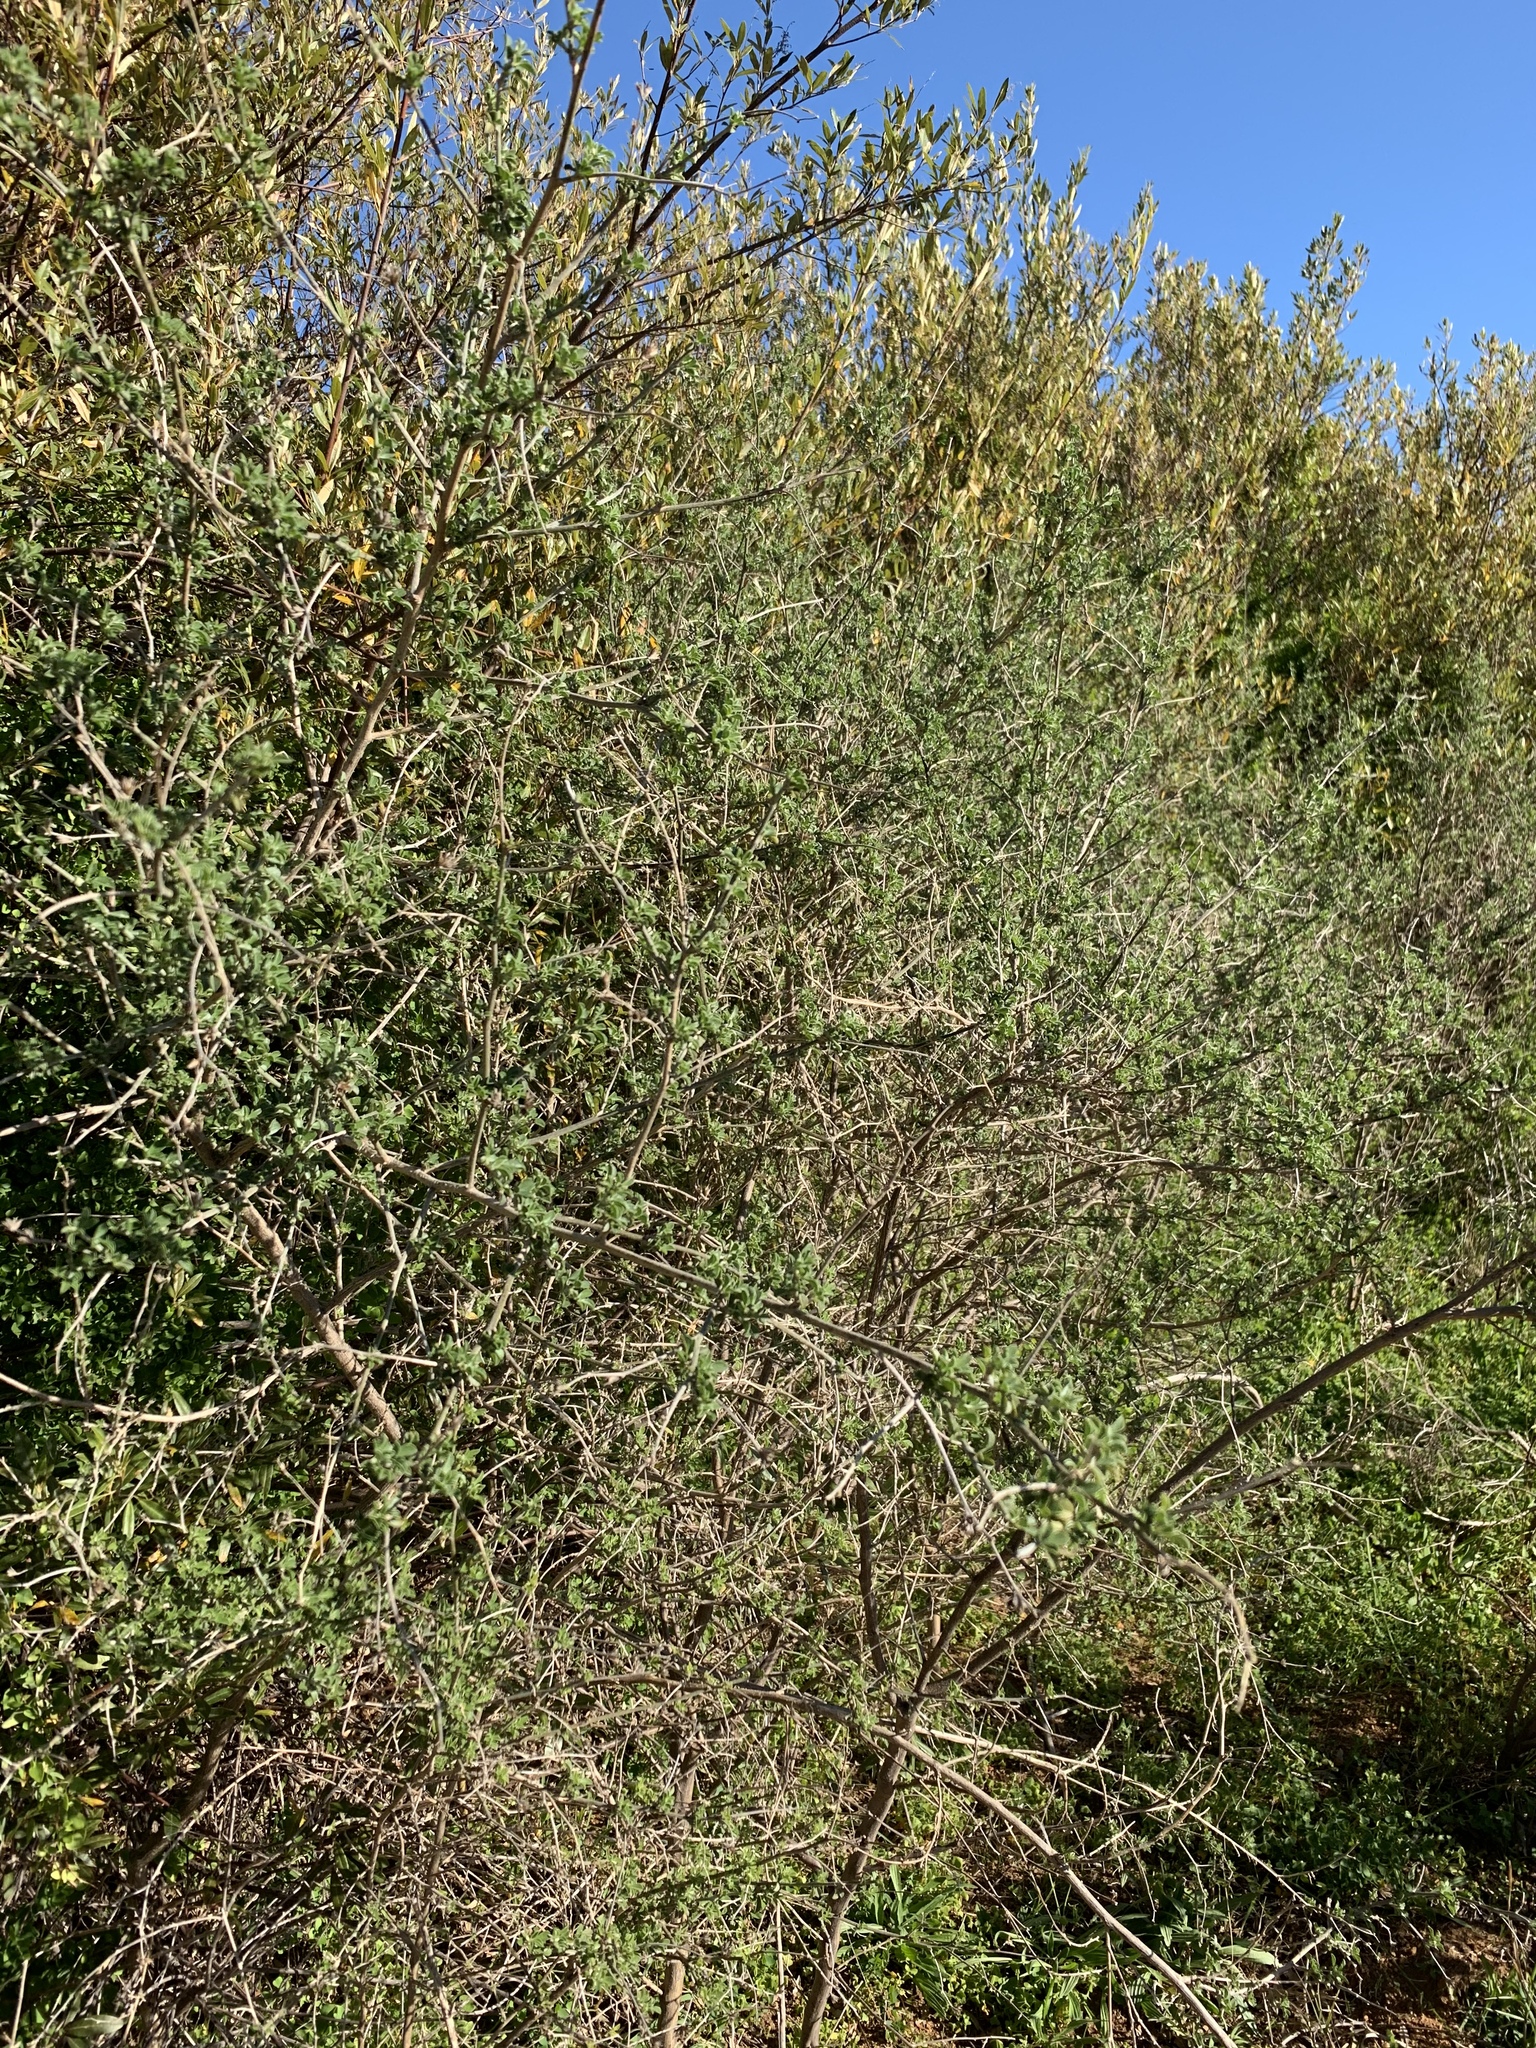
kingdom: Plantae
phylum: Tracheophyta
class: Magnoliopsida
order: Fabales
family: Fabaceae
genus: Psoralea
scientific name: Psoralea hirta
